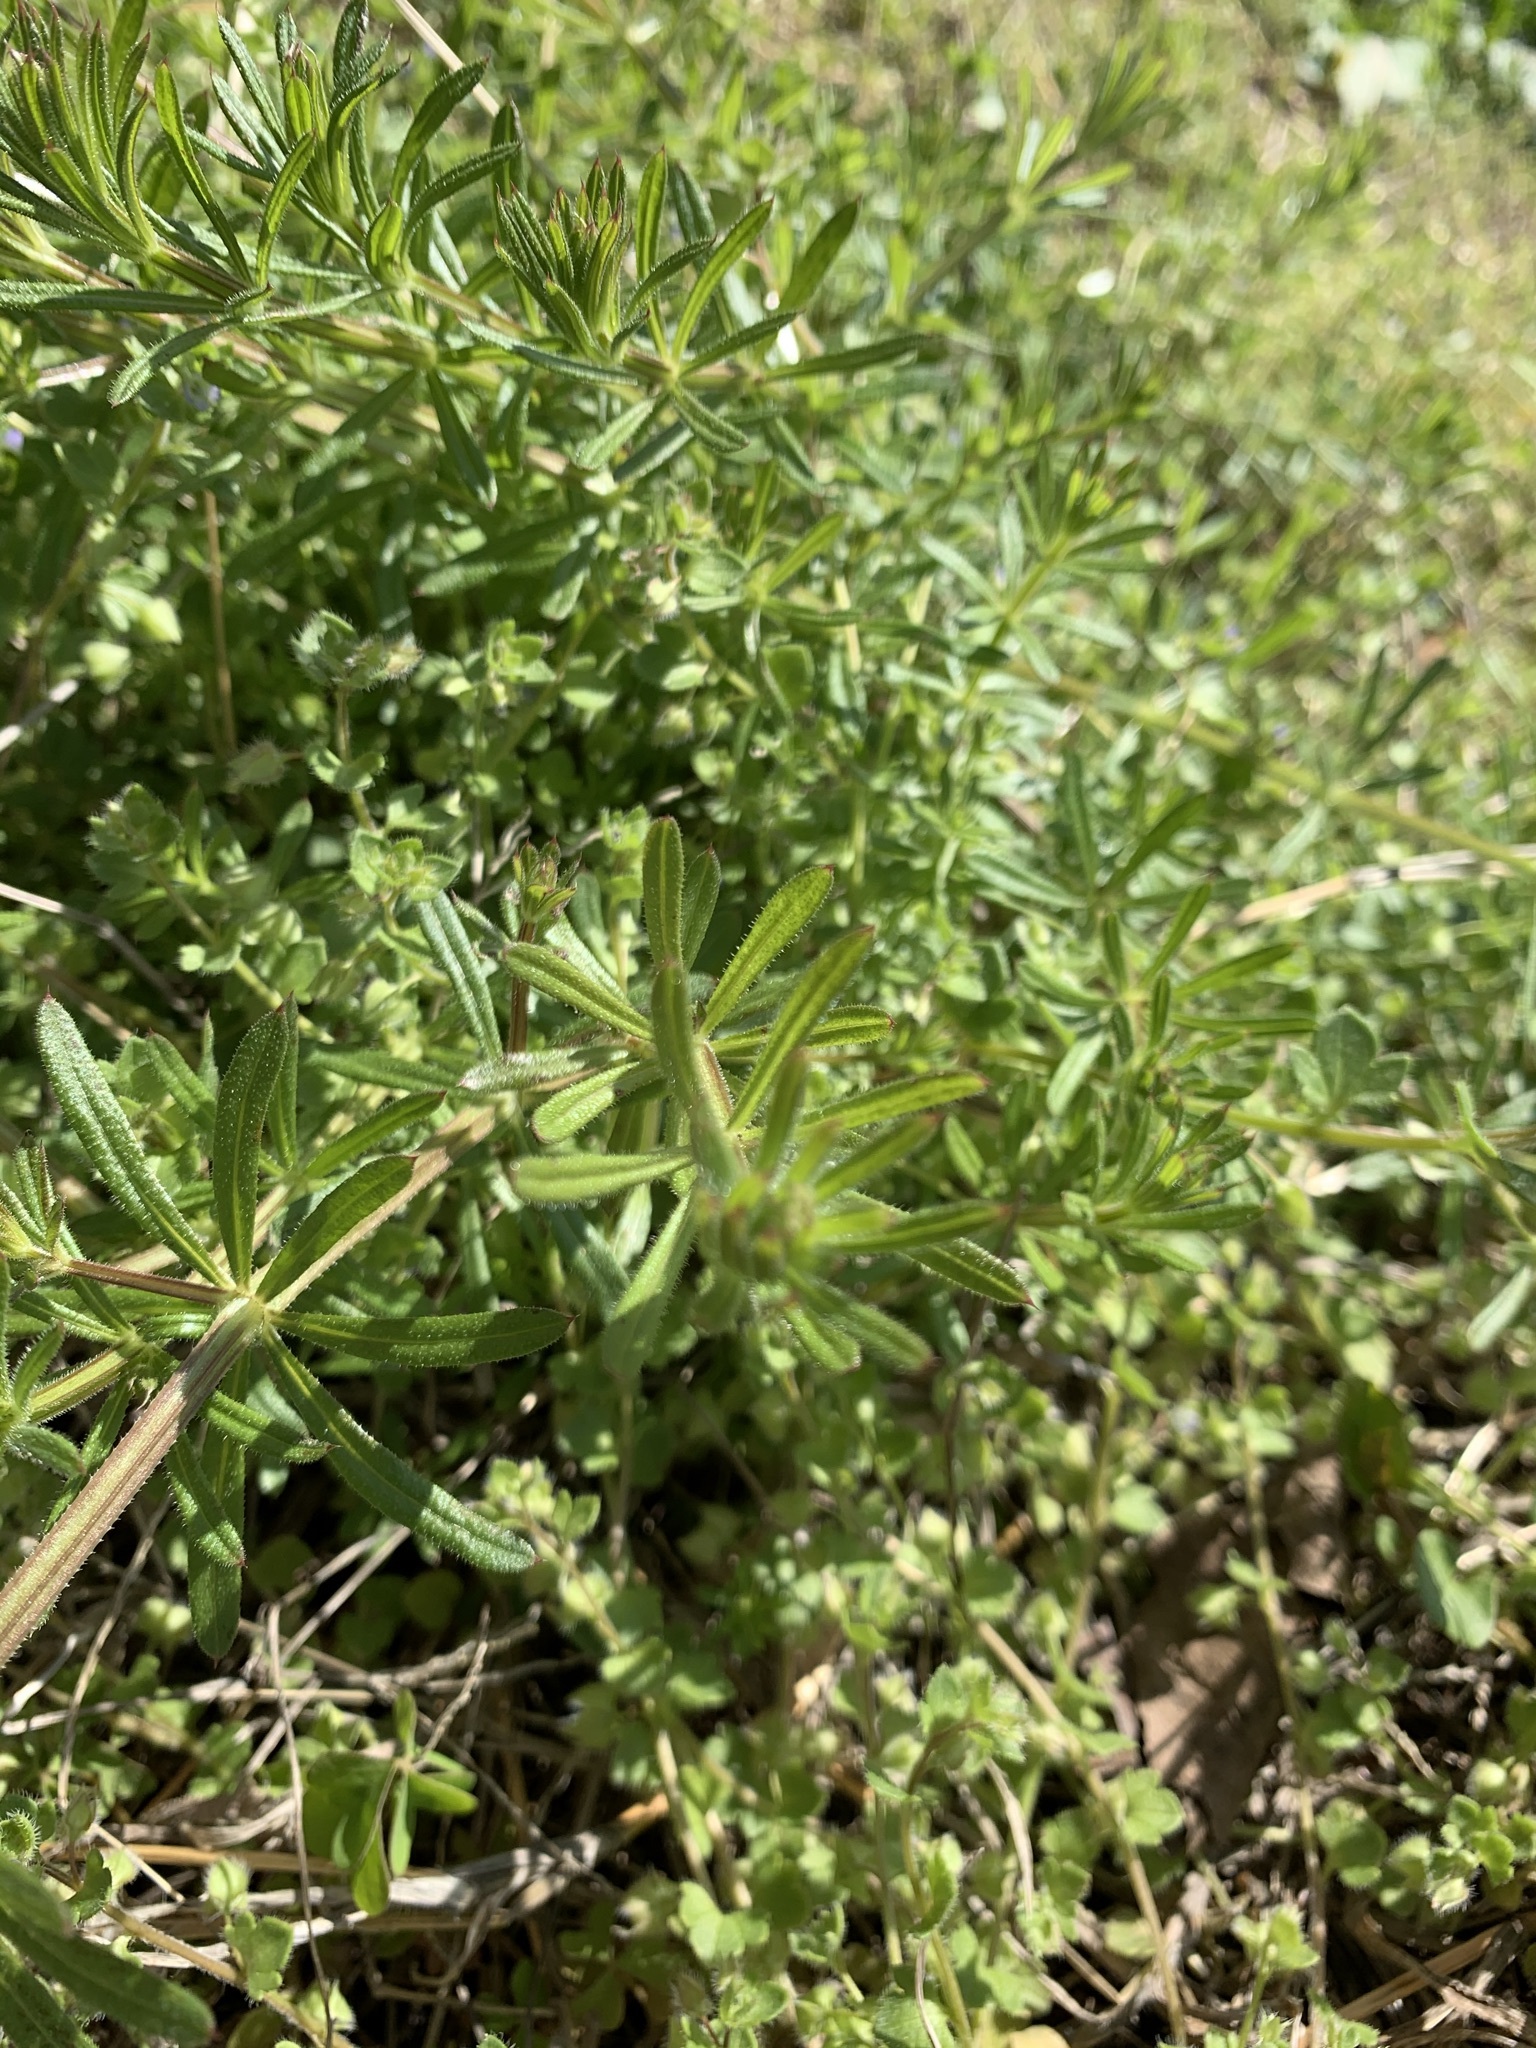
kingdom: Plantae
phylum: Tracheophyta
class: Magnoliopsida
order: Gentianales
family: Rubiaceae
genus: Galium
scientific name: Galium aparine
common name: Cleavers
